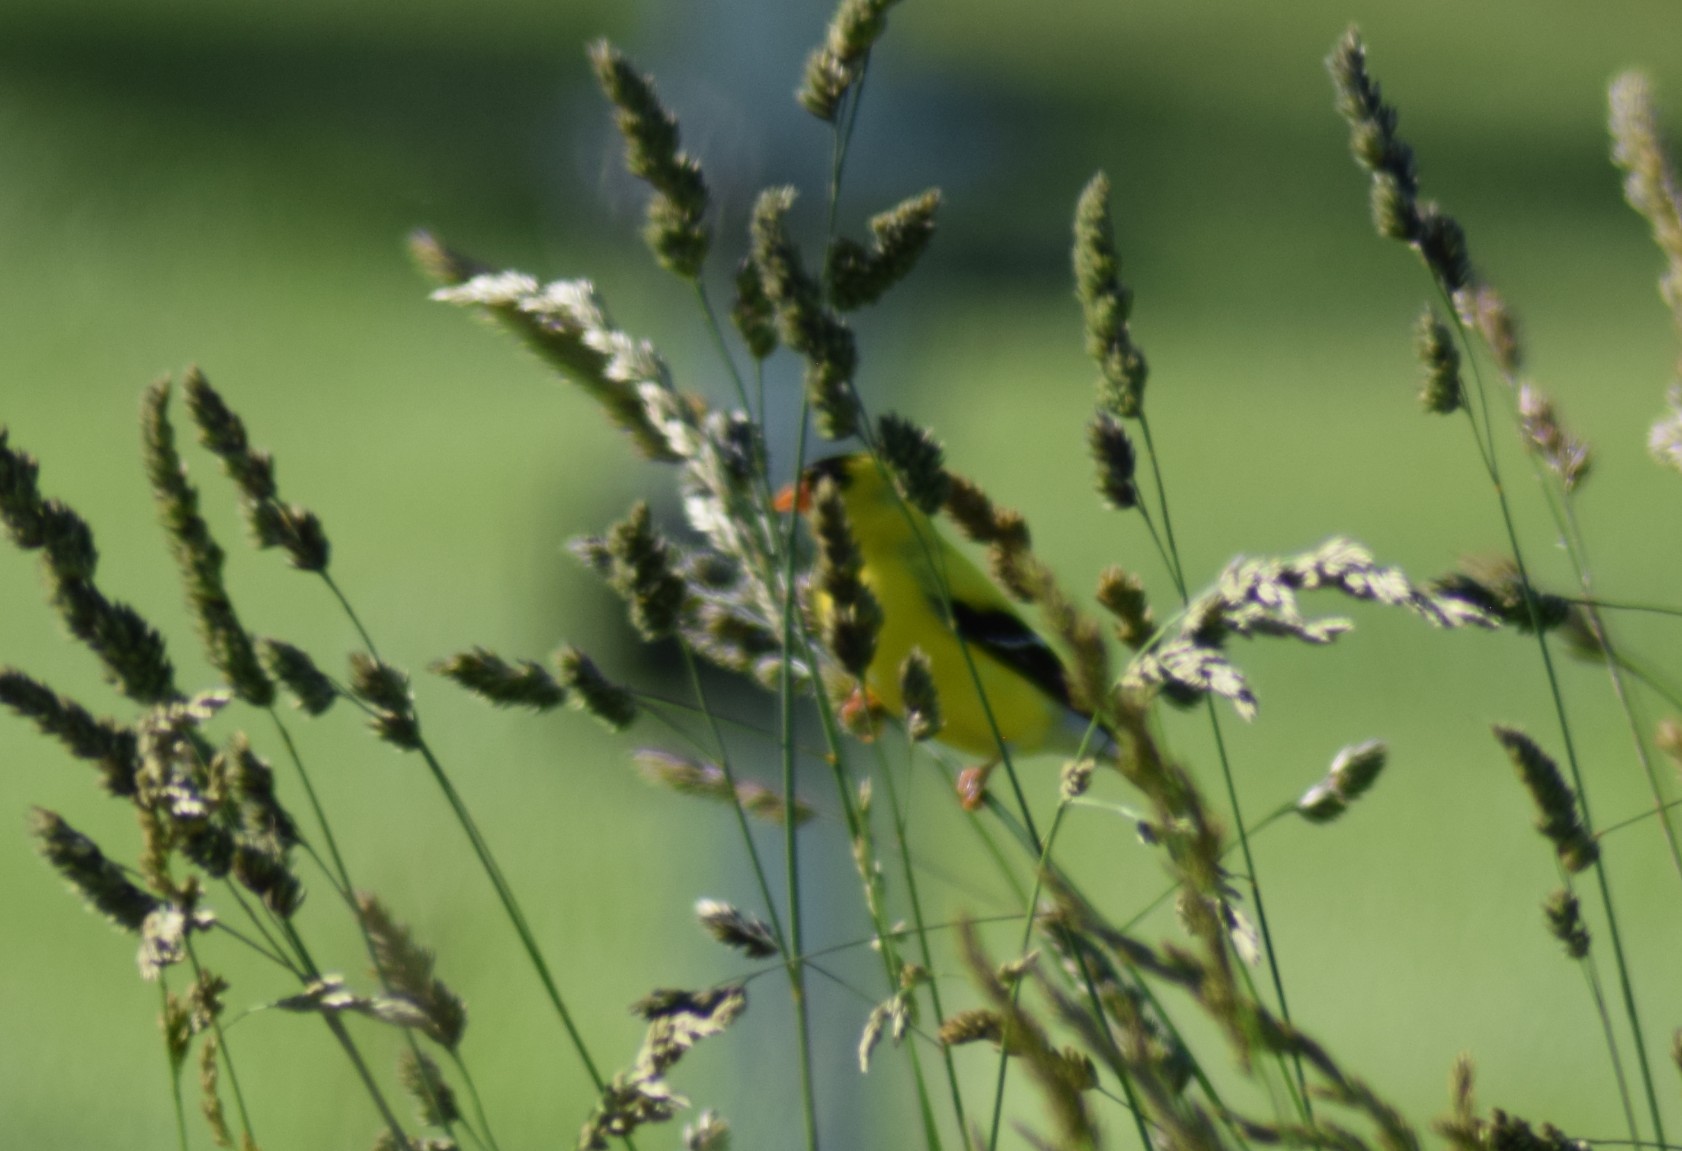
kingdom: Animalia
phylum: Chordata
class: Aves
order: Passeriformes
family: Fringillidae
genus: Spinus
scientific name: Spinus tristis
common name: American goldfinch
